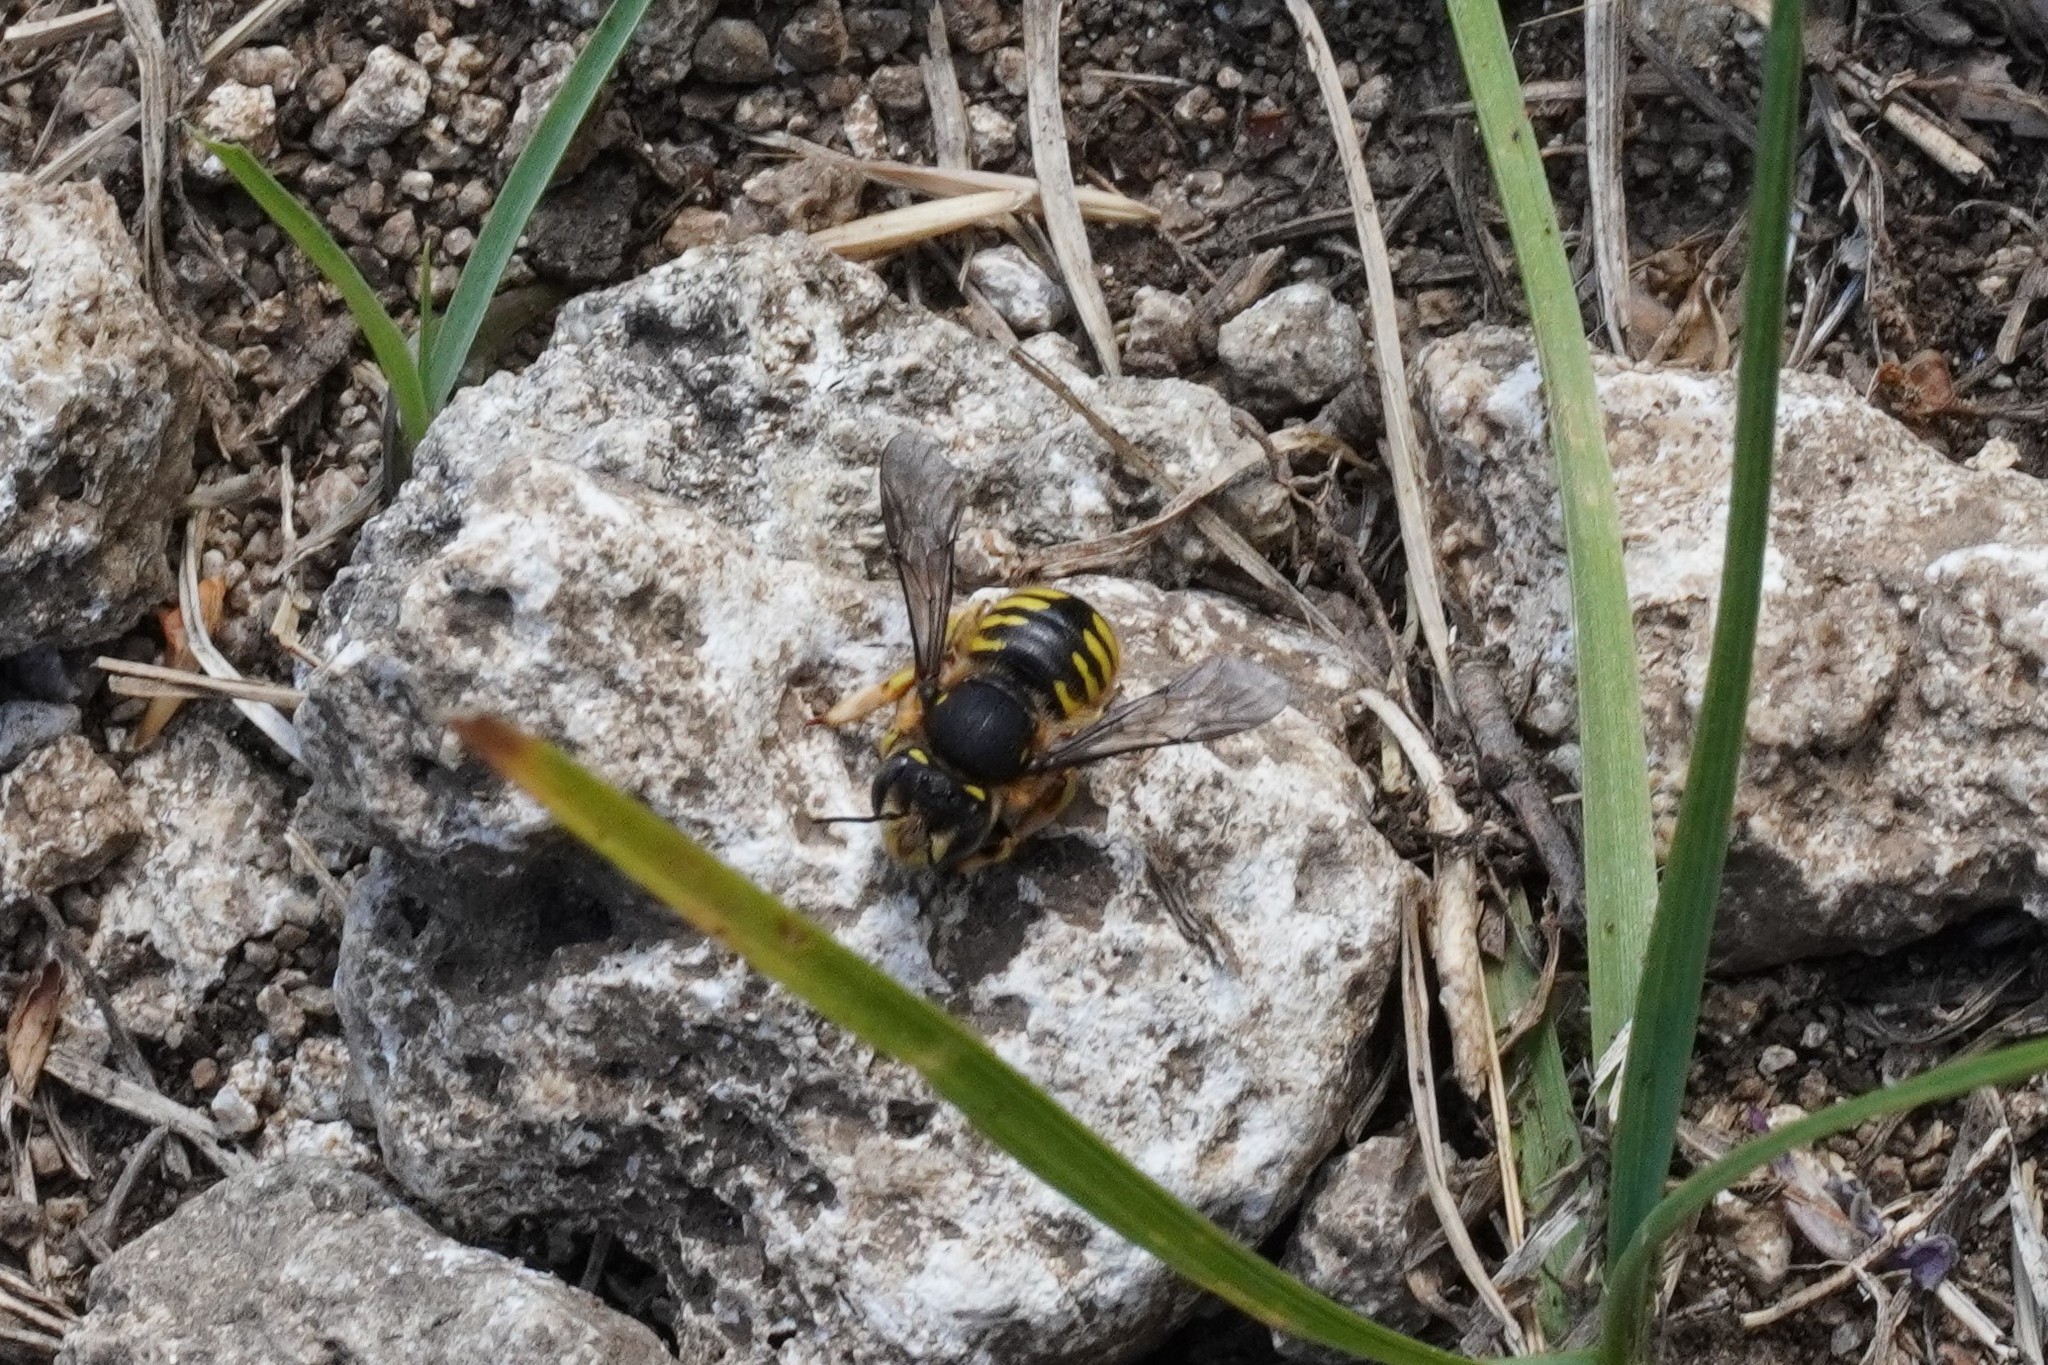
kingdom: Animalia
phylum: Arthropoda
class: Insecta
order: Hymenoptera
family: Megachilidae
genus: Anthidium
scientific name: Anthidium manicatum
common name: Wool carder bee
